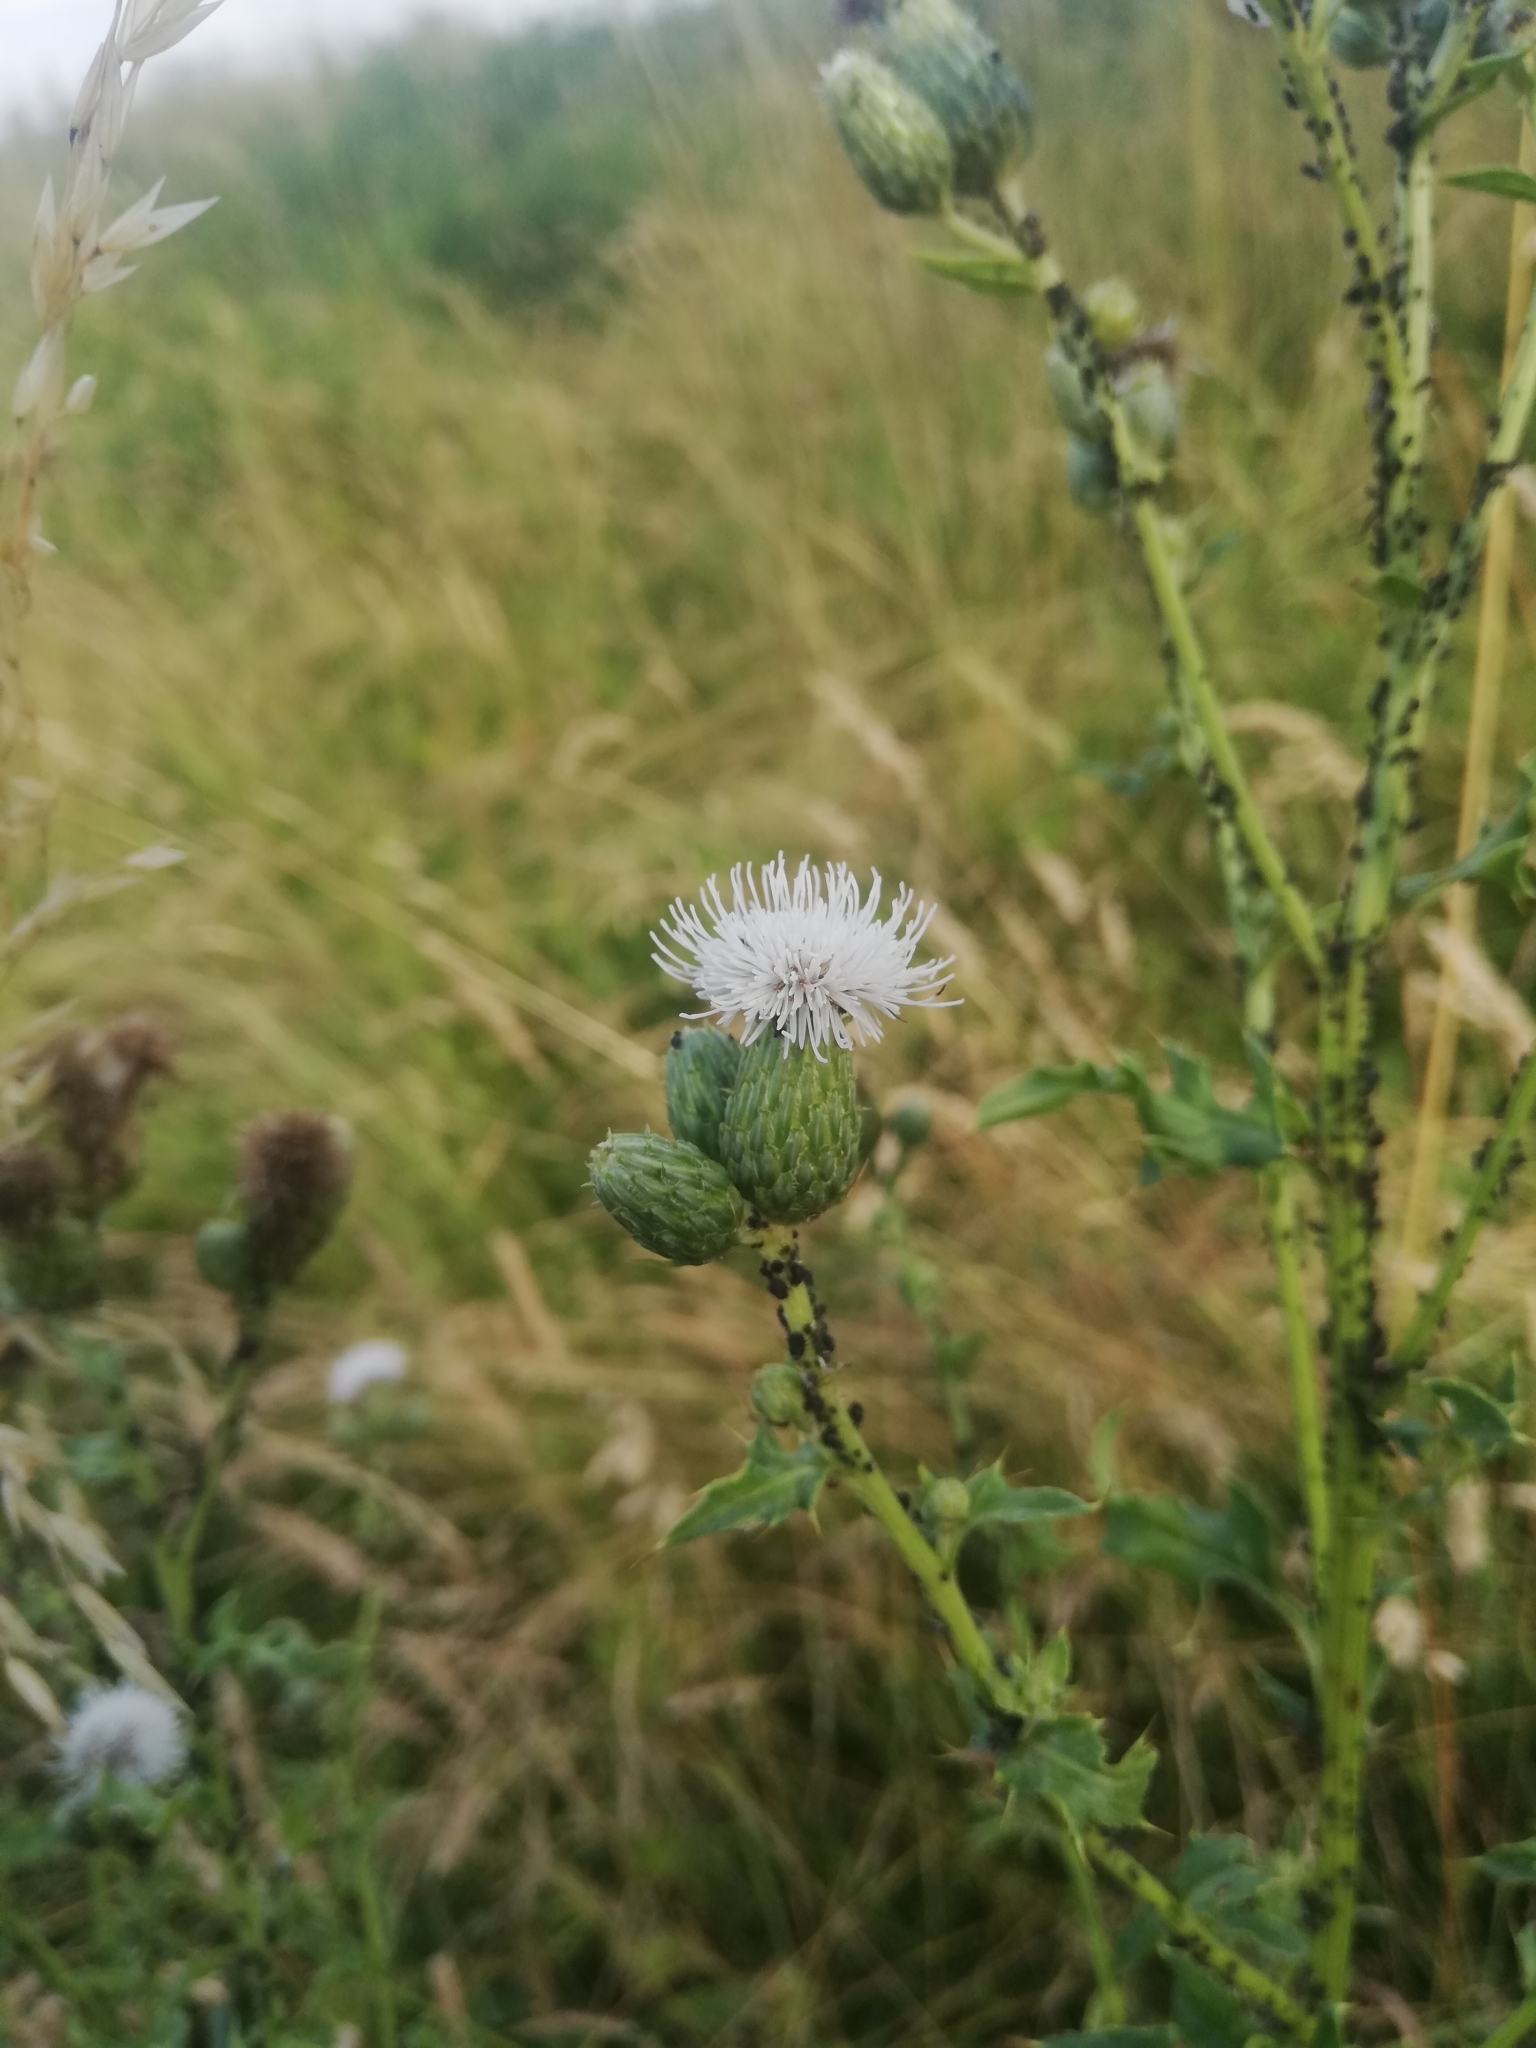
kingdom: Plantae
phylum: Tracheophyta
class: Magnoliopsida
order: Asterales
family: Asteraceae
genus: Cirsium
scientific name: Cirsium arvense
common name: Creeping thistle
